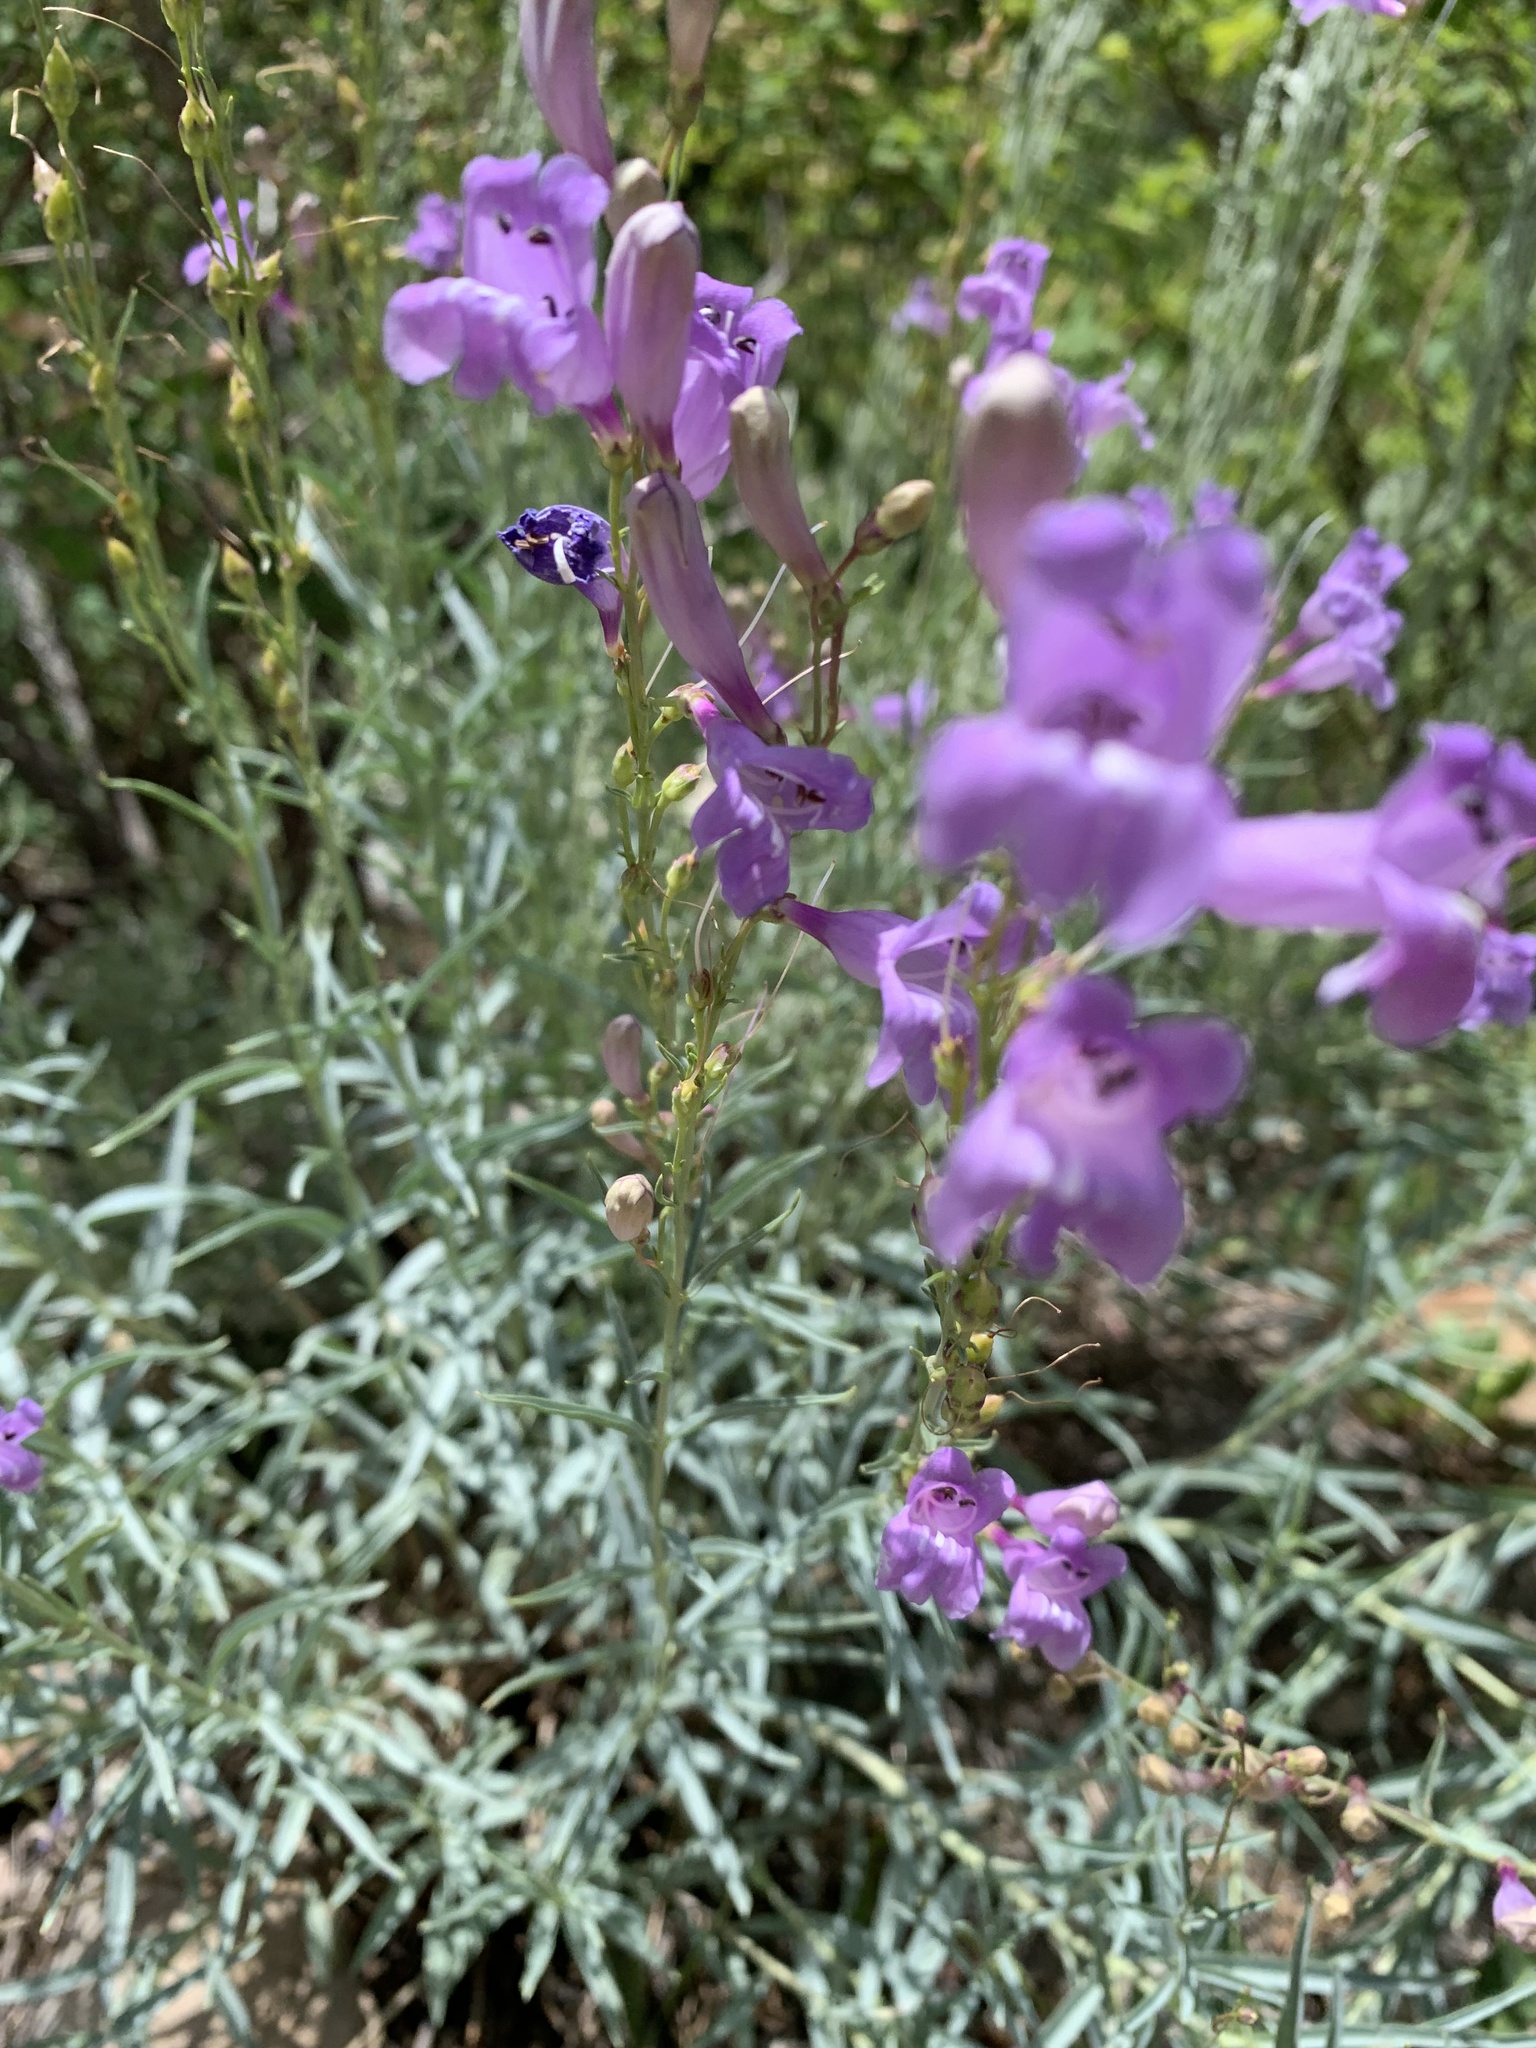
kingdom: Plantae
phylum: Tracheophyta
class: Magnoliopsida
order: Lamiales
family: Plantaginaceae
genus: Penstemon
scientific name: Penstemon sepalulus
